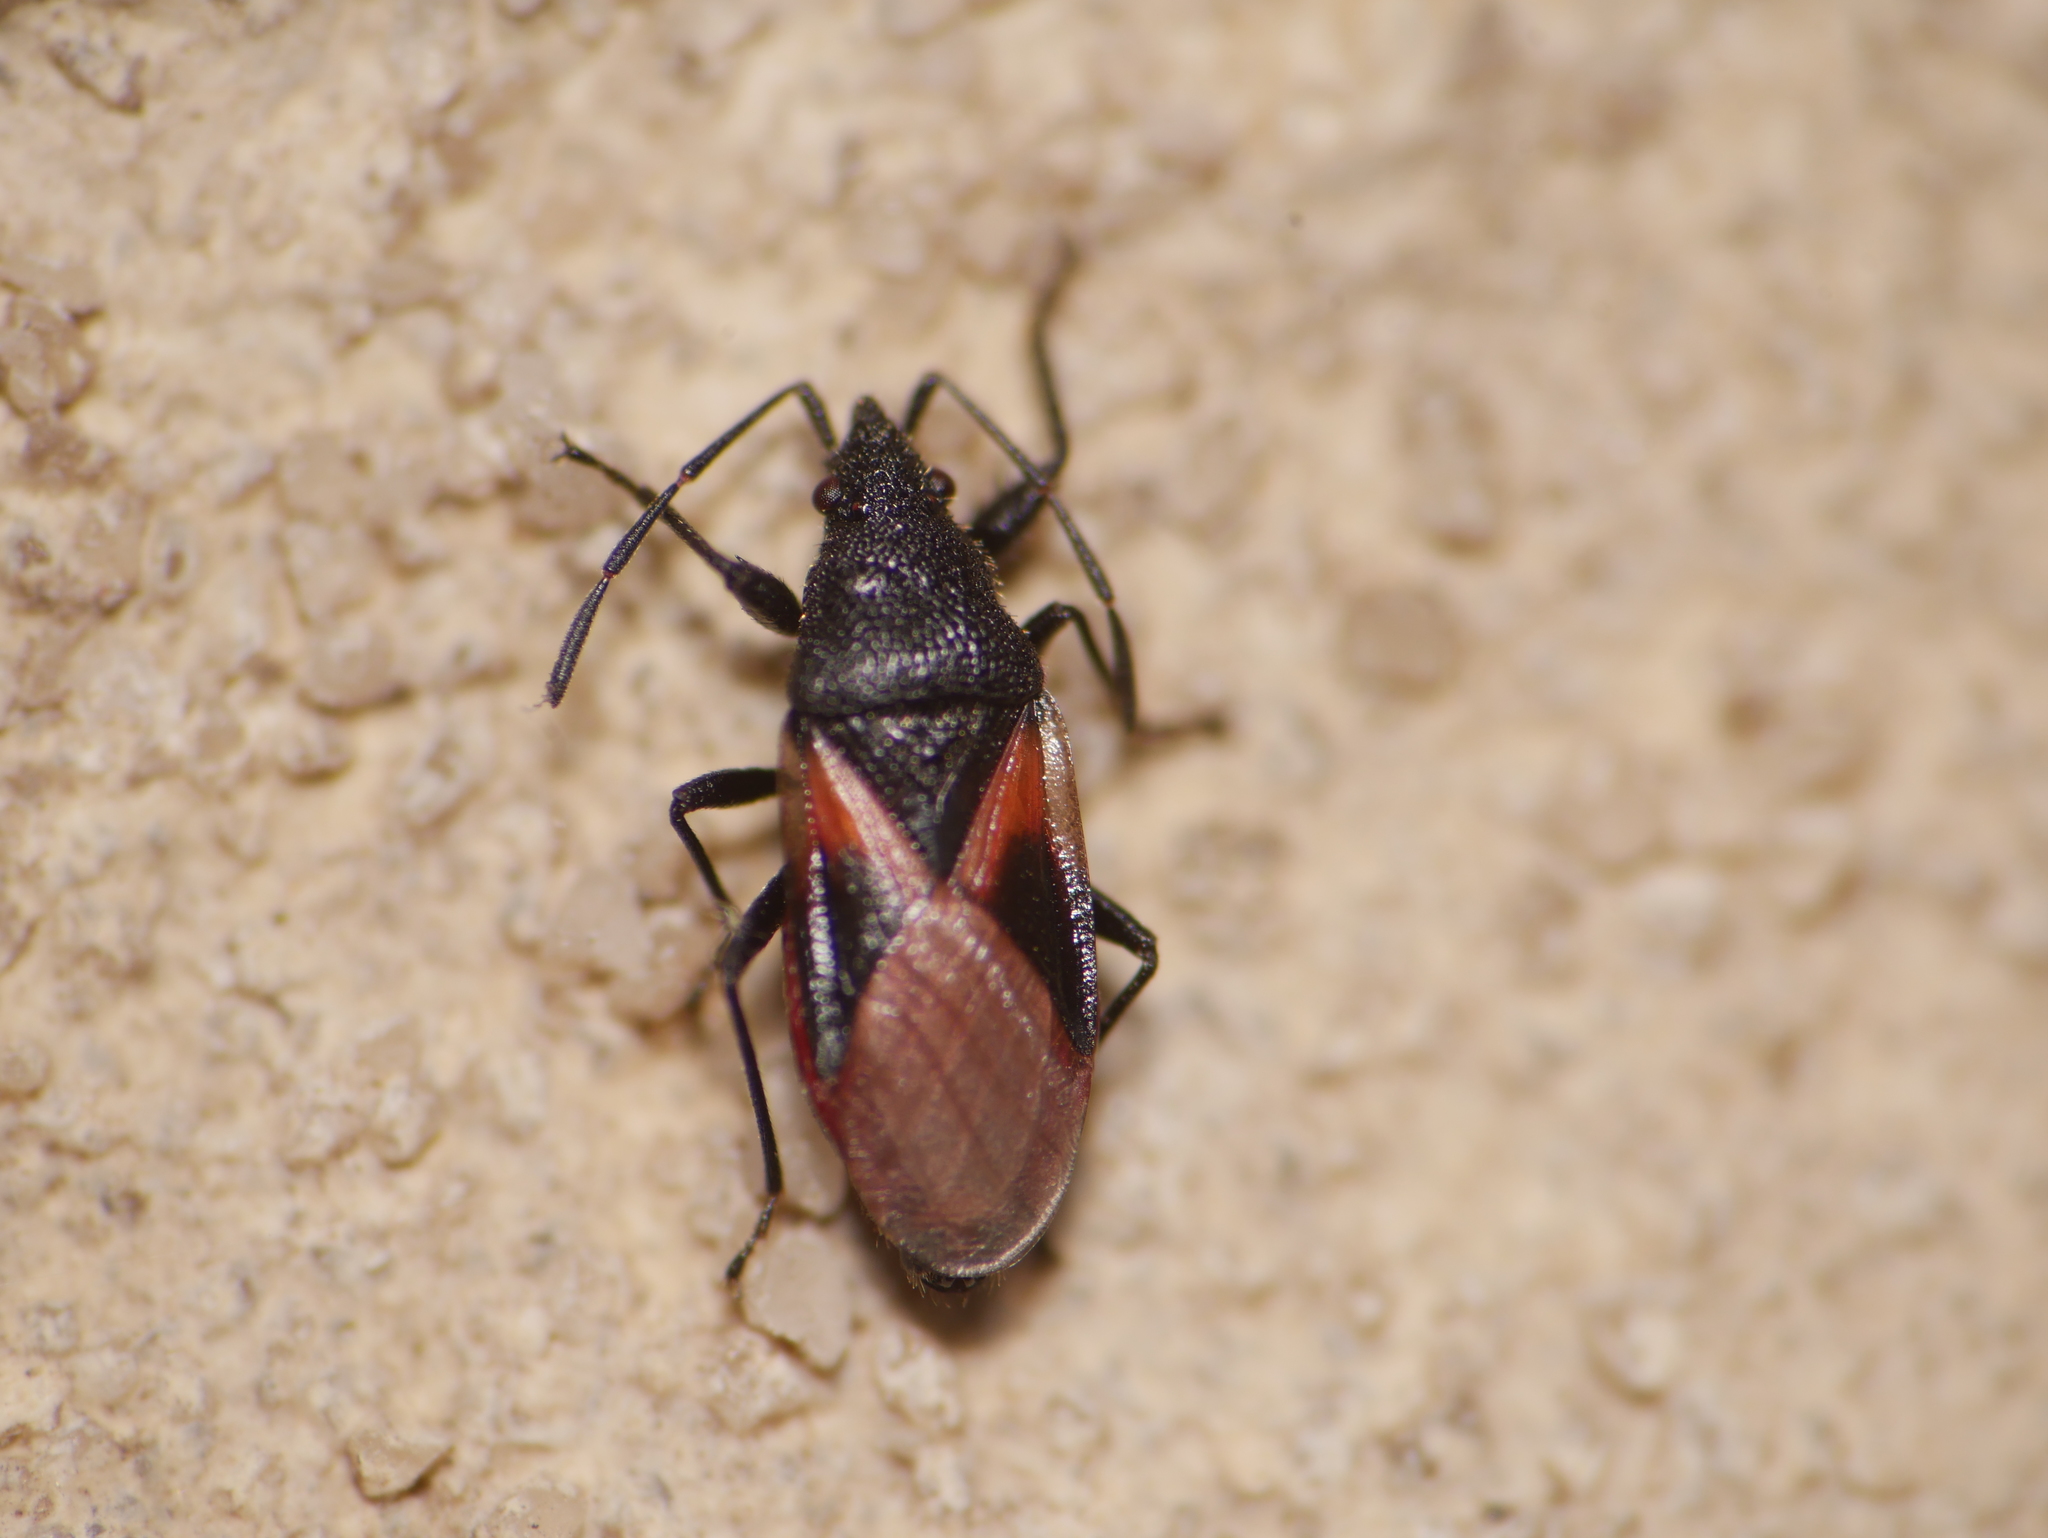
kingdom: Animalia
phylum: Arthropoda
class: Insecta
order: Hemiptera
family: Oxycarenidae
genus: Oxycarenus
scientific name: Oxycarenus lavaterae
